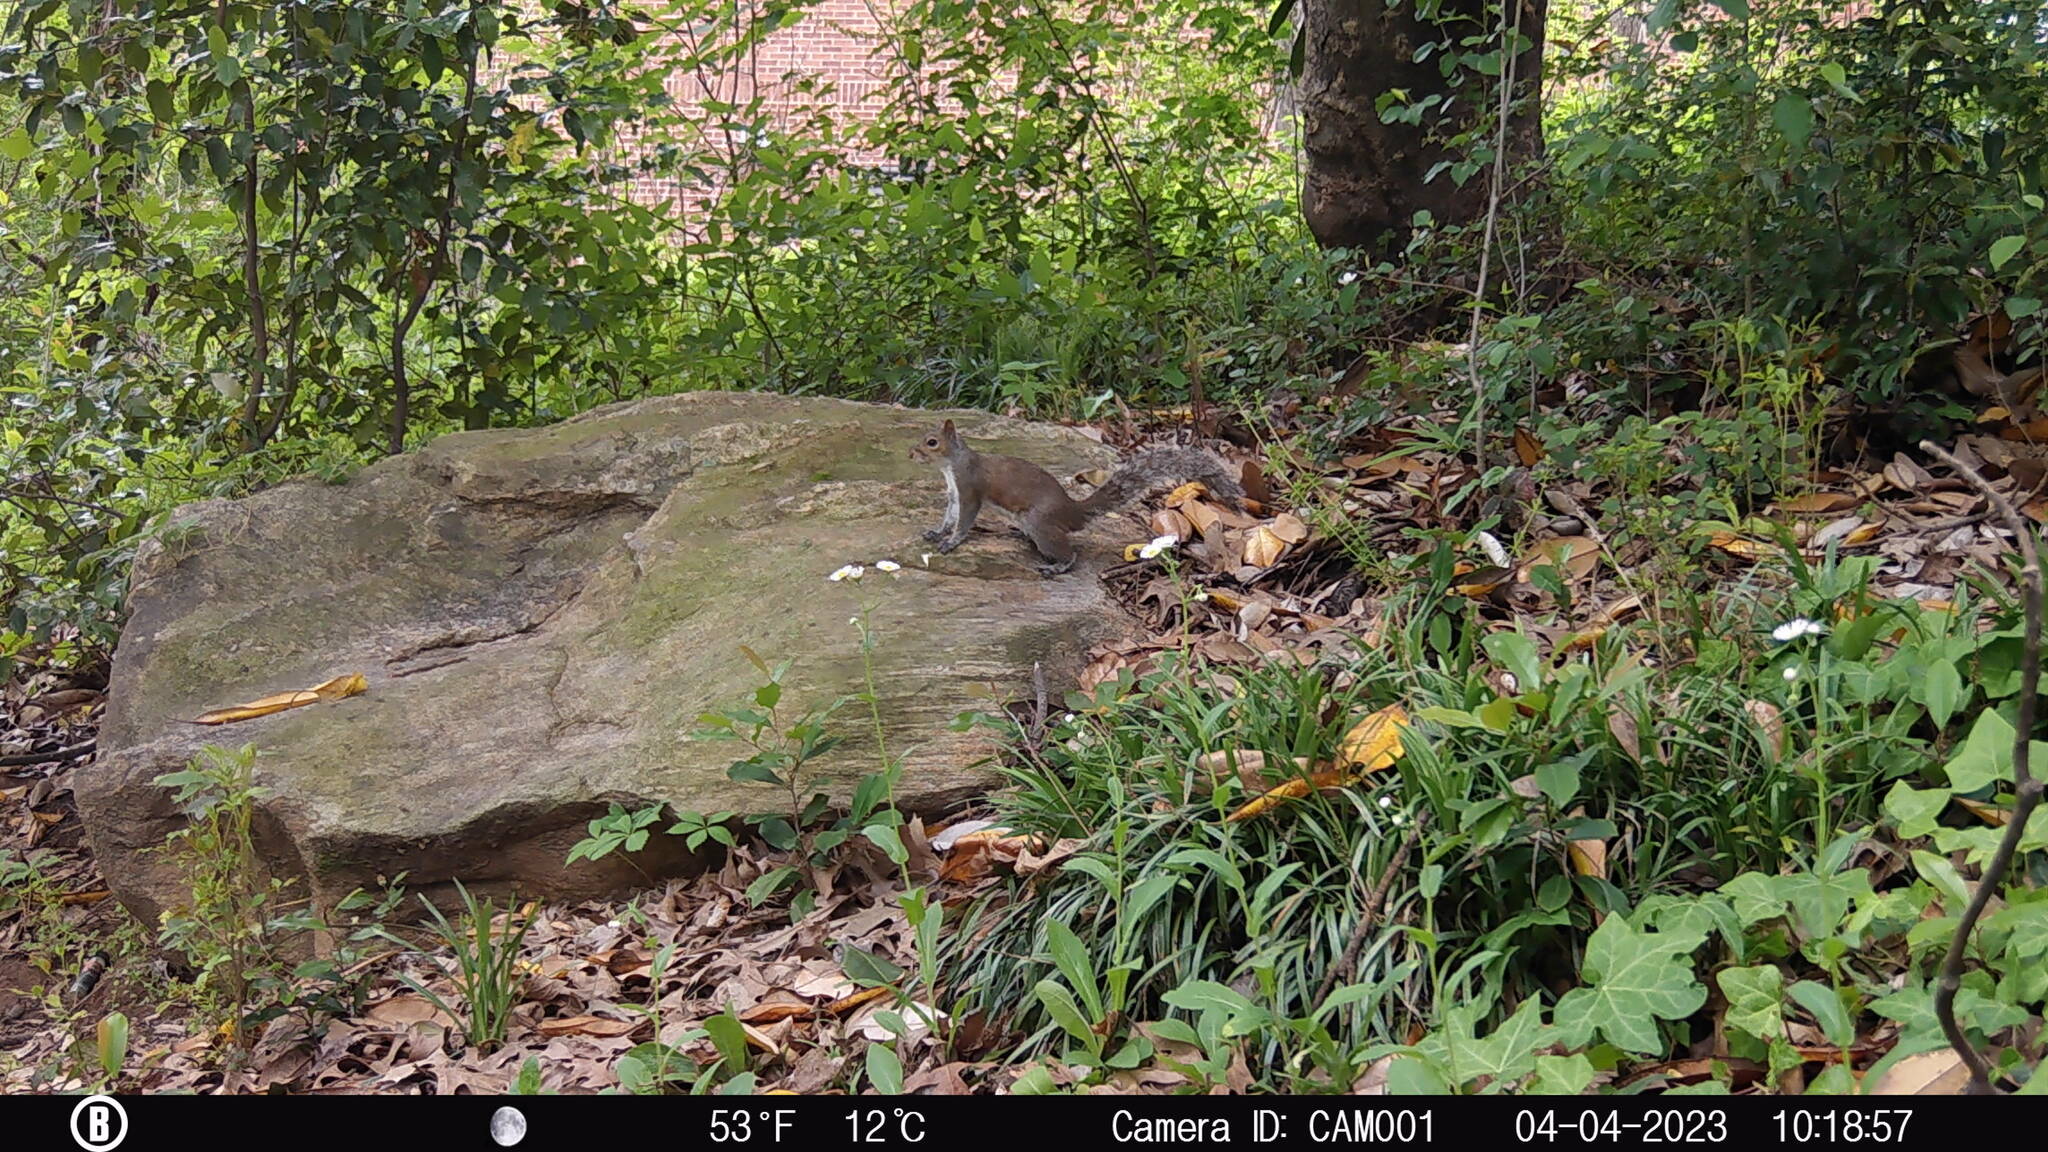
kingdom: Animalia
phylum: Chordata
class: Mammalia
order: Rodentia
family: Sciuridae
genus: Sciurus
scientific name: Sciurus carolinensis
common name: Eastern gray squirrel
